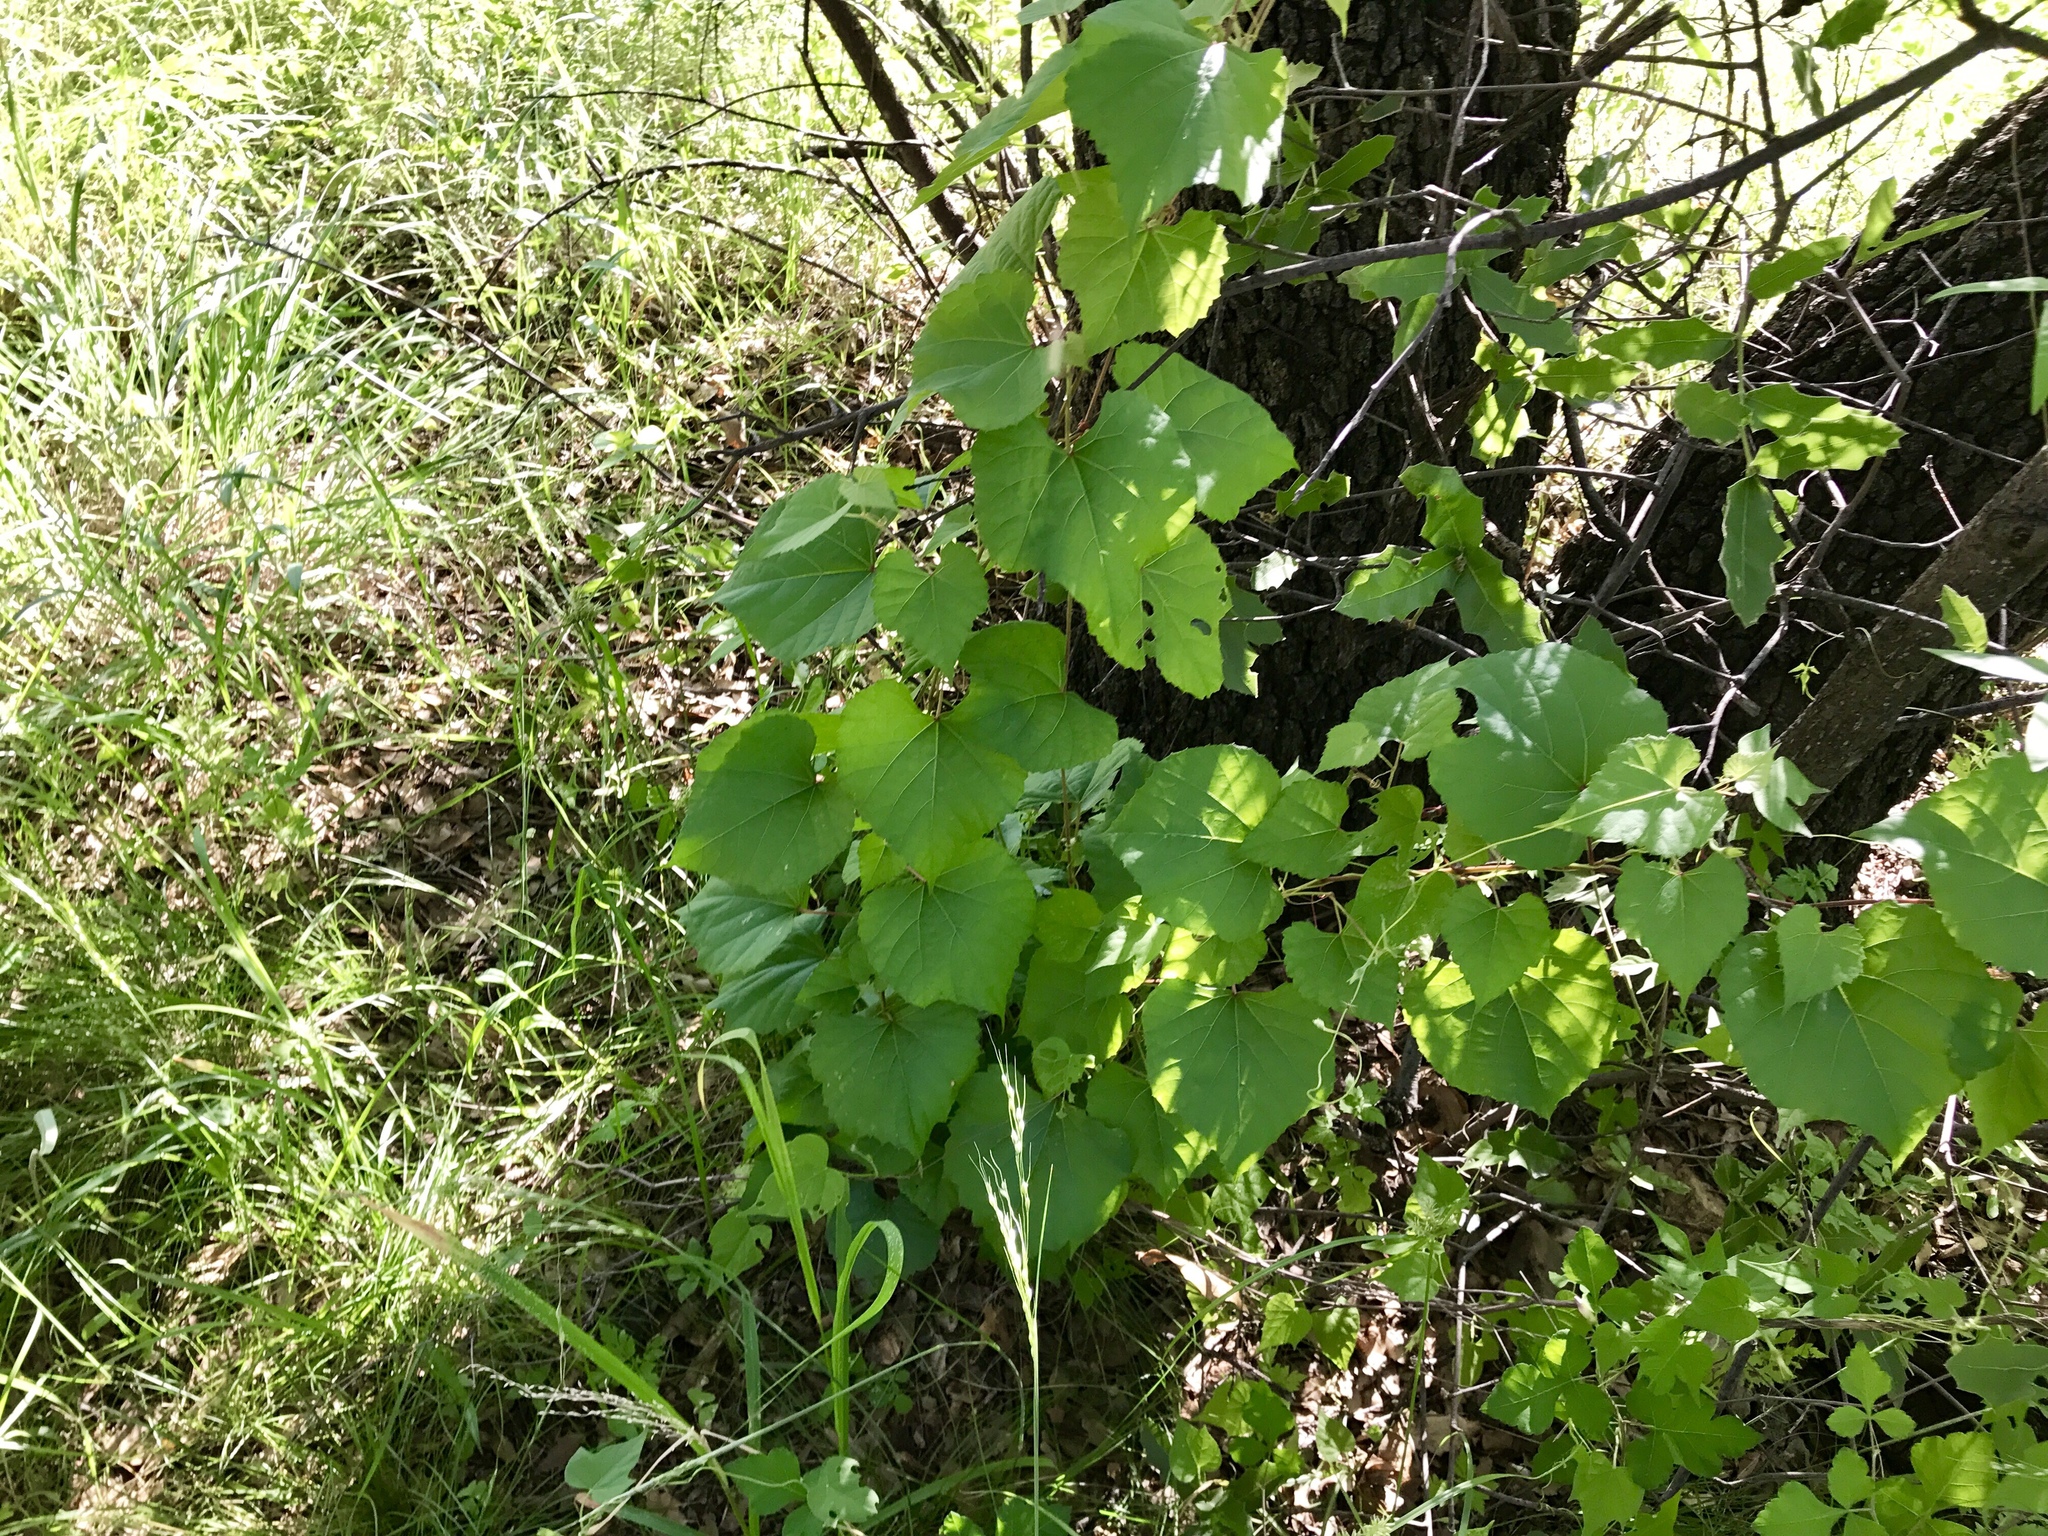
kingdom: Plantae
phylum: Tracheophyta
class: Magnoliopsida
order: Vitales
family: Vitaceae
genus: Vitis
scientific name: Vitis arizonica
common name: Canyon grape
